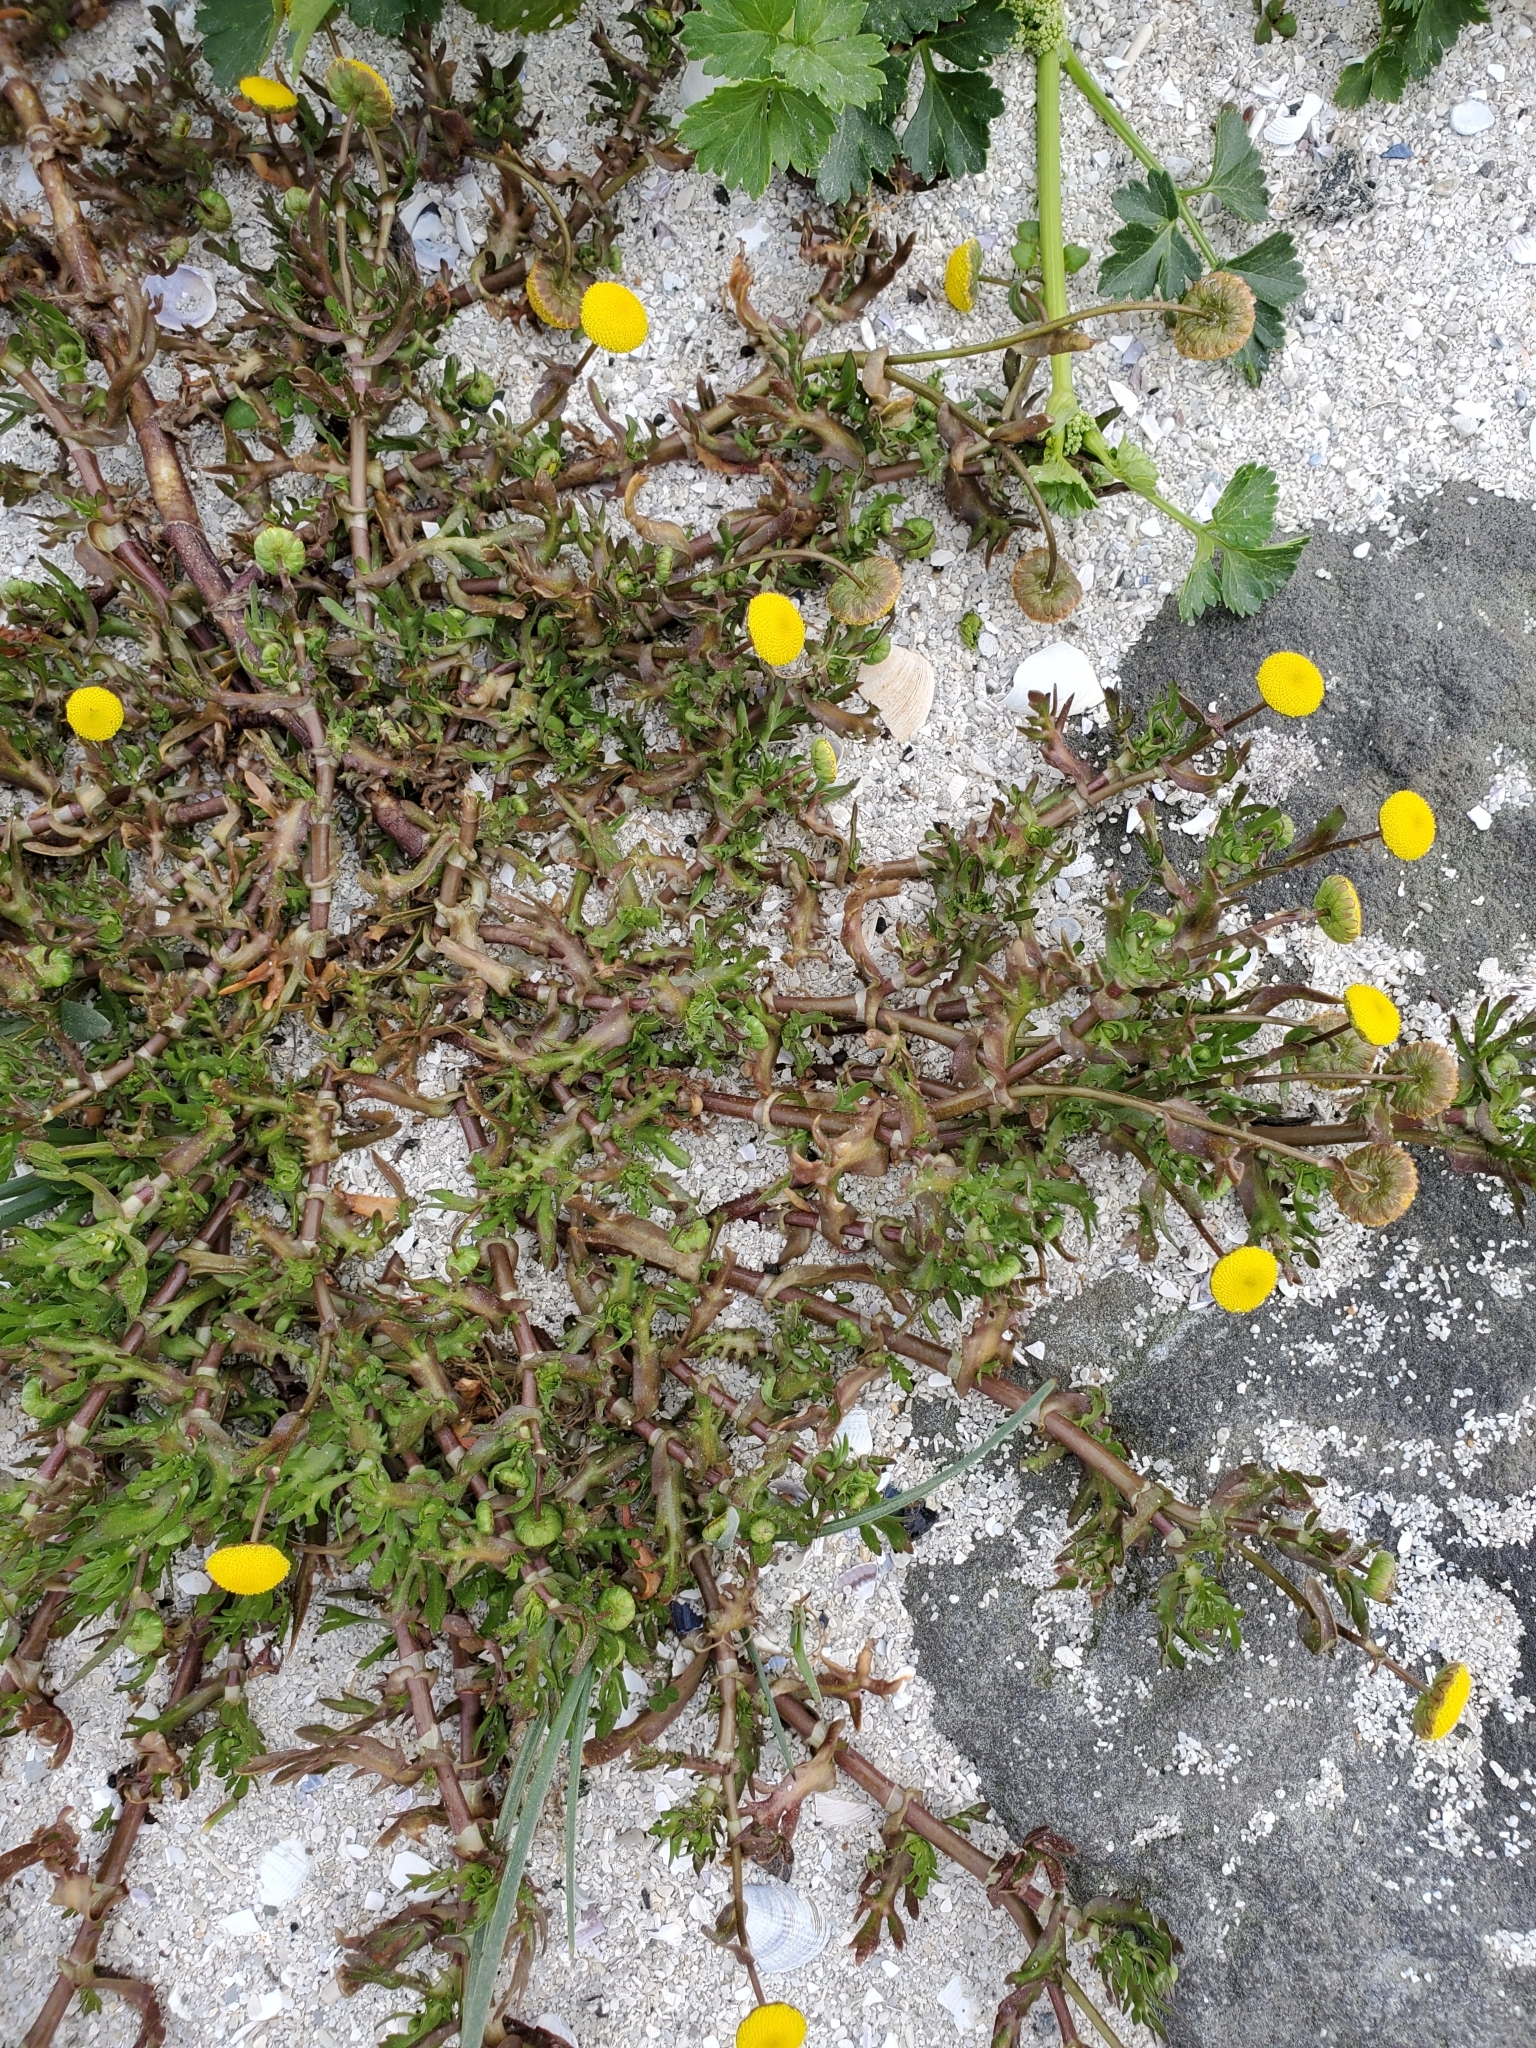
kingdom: Plantae
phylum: Tracheophyta
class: Magnoliopsida
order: Asterales
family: Asteraceae
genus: Cotula
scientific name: Cotula coronopifolia
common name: Buttonweed
